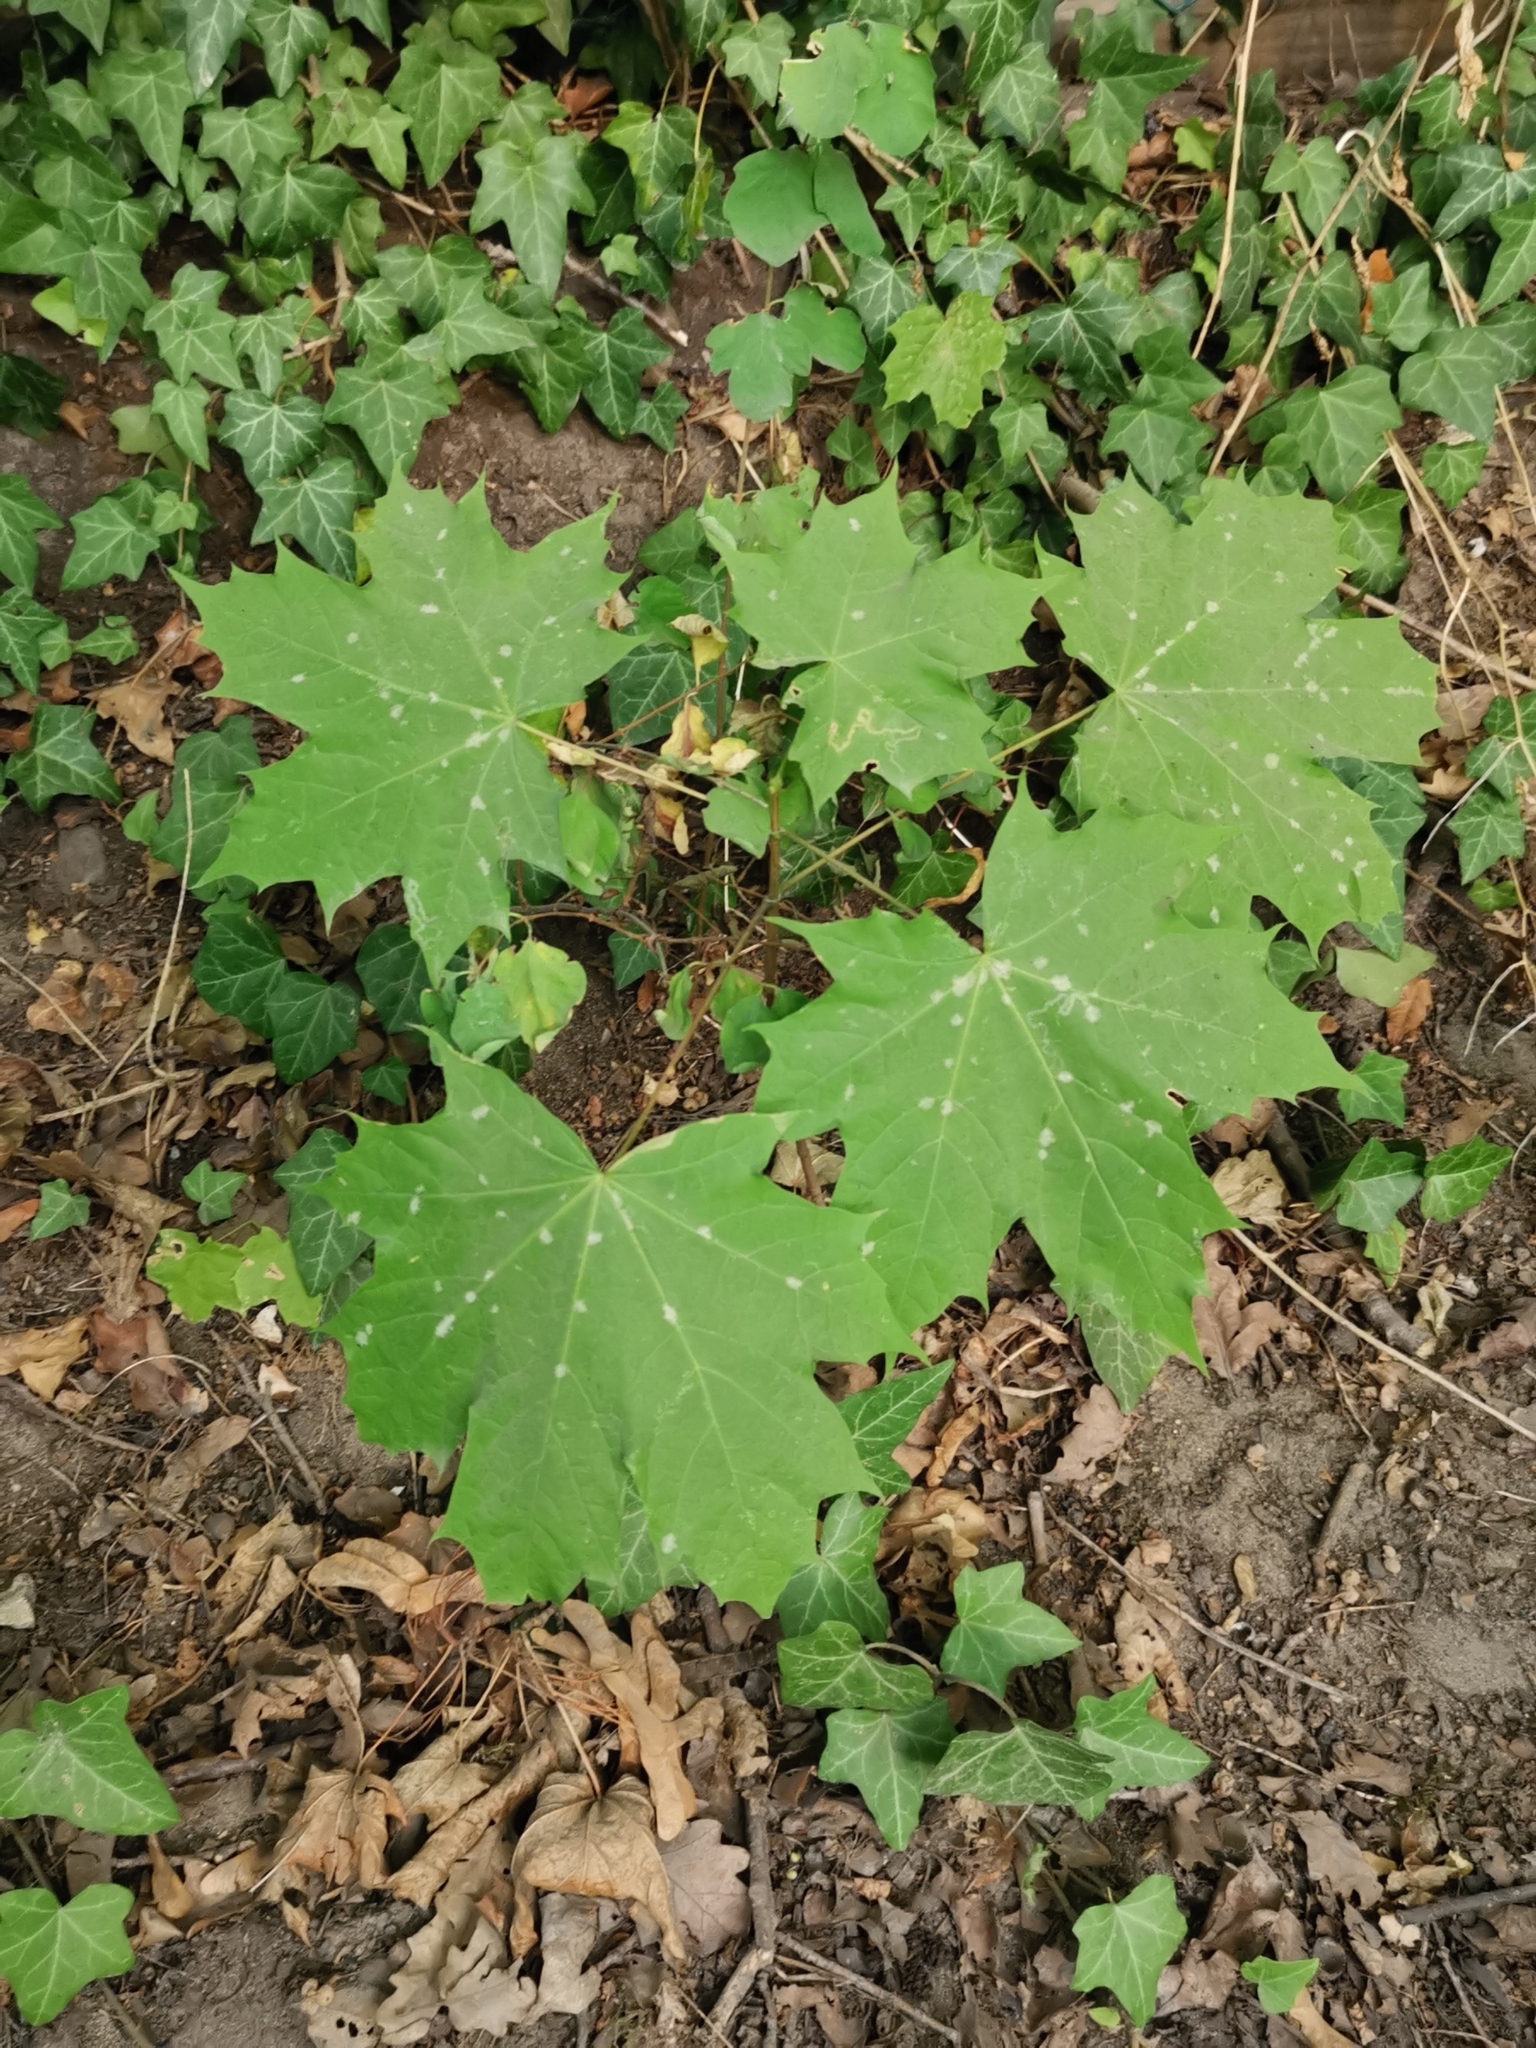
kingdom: Plantae
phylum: Tracheophyta
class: Magnoliopsida
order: Sapindales
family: Sapindaceae
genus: Acer
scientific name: Acer platanoides
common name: Norway maple
